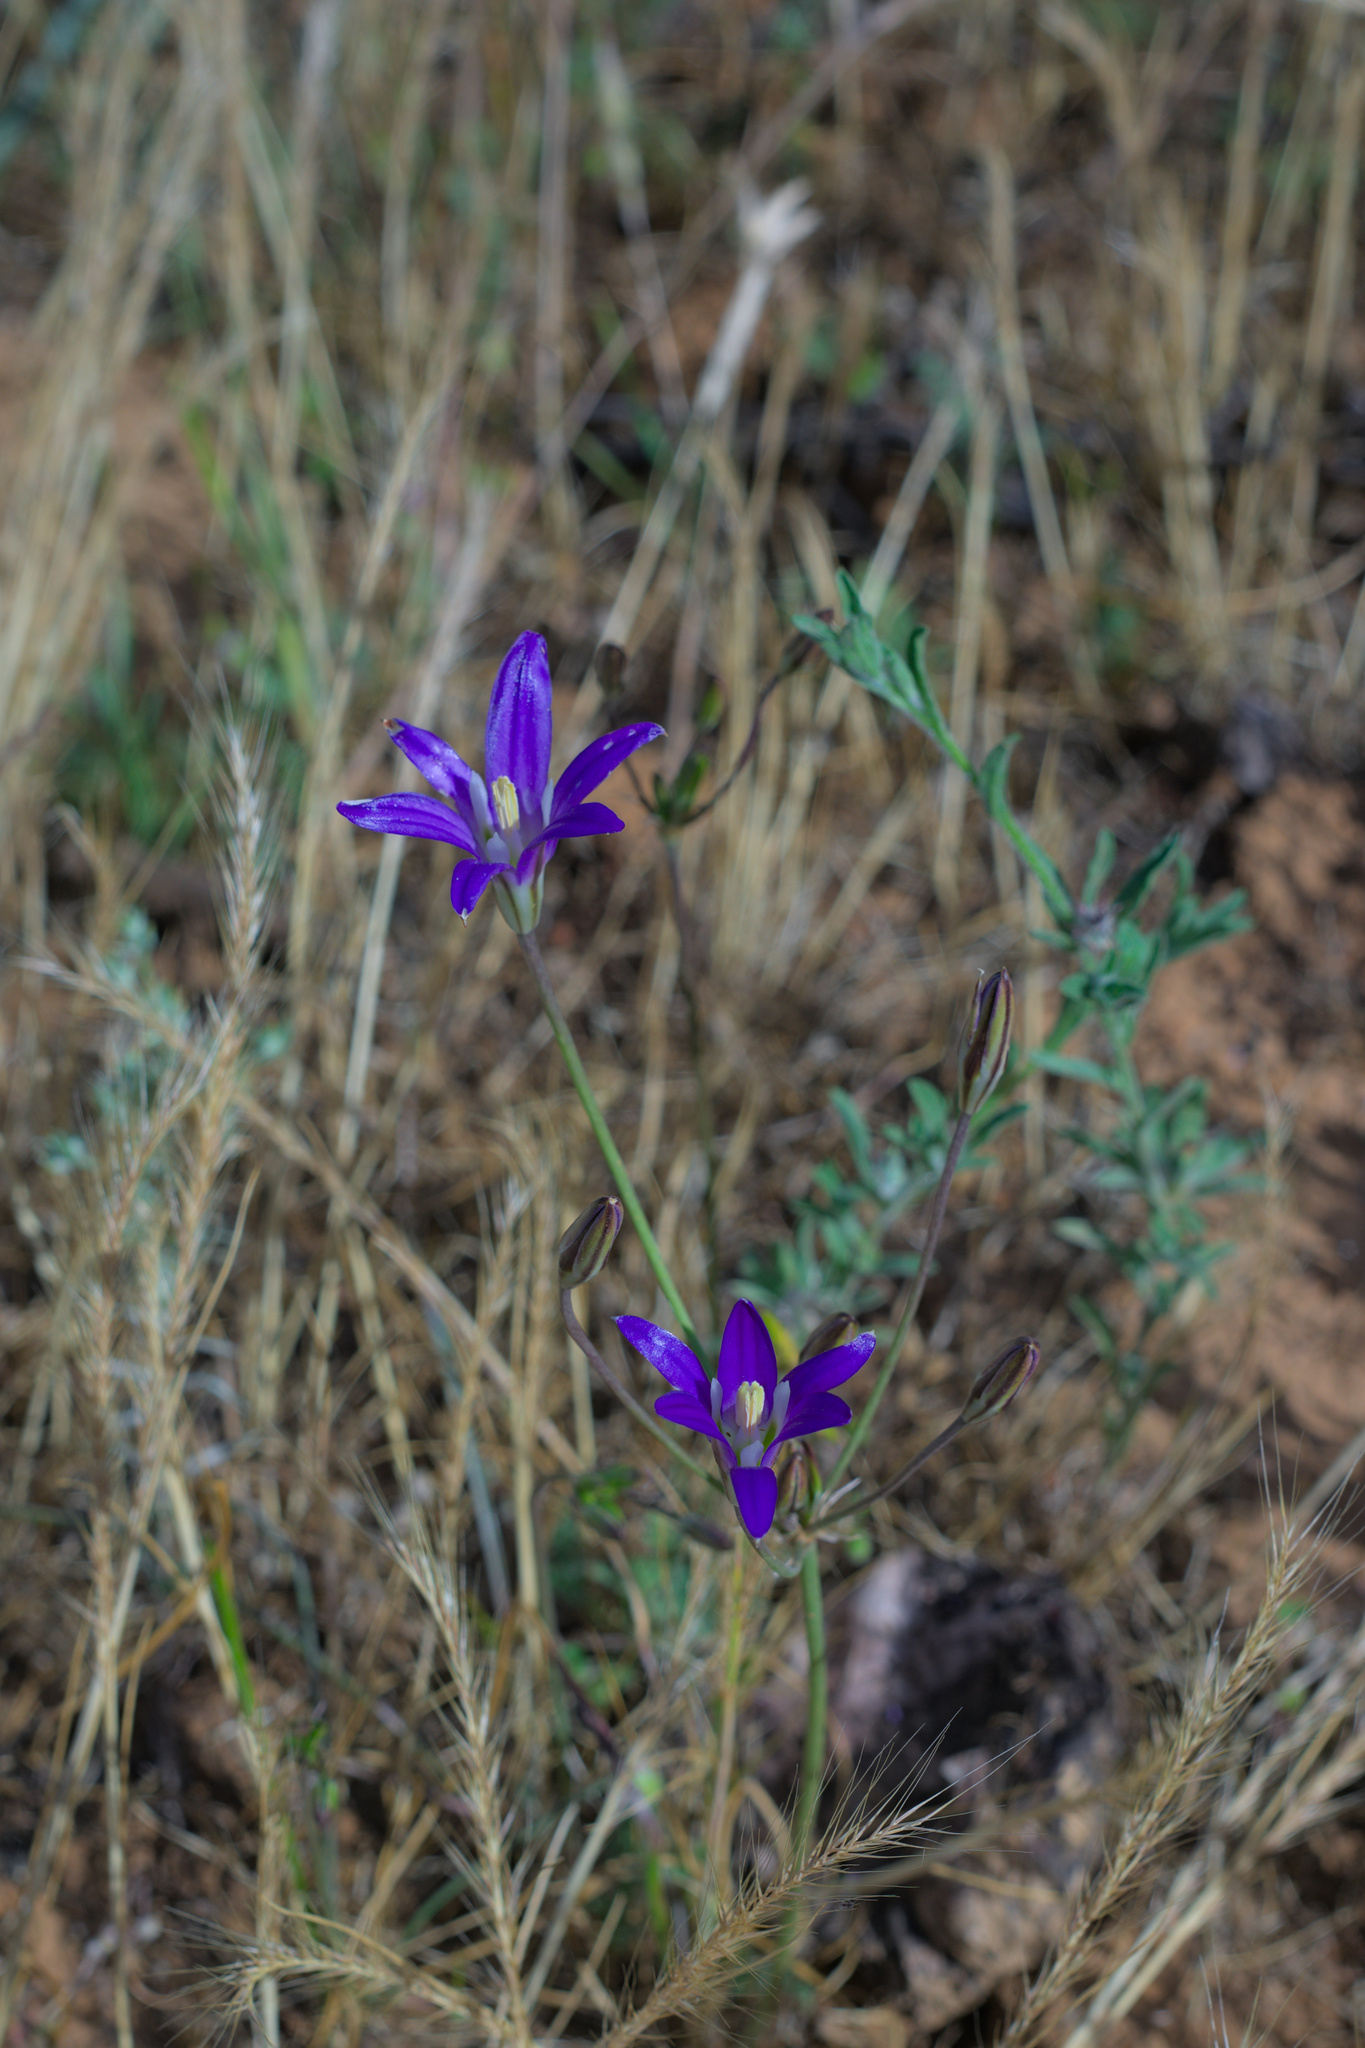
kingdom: Plantae
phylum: Tracheophyta
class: Liliopsida
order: Asparagales
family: Asparagaceae
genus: Brodiaea
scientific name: Brodiaea elegans
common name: Elegant cluster-lily
